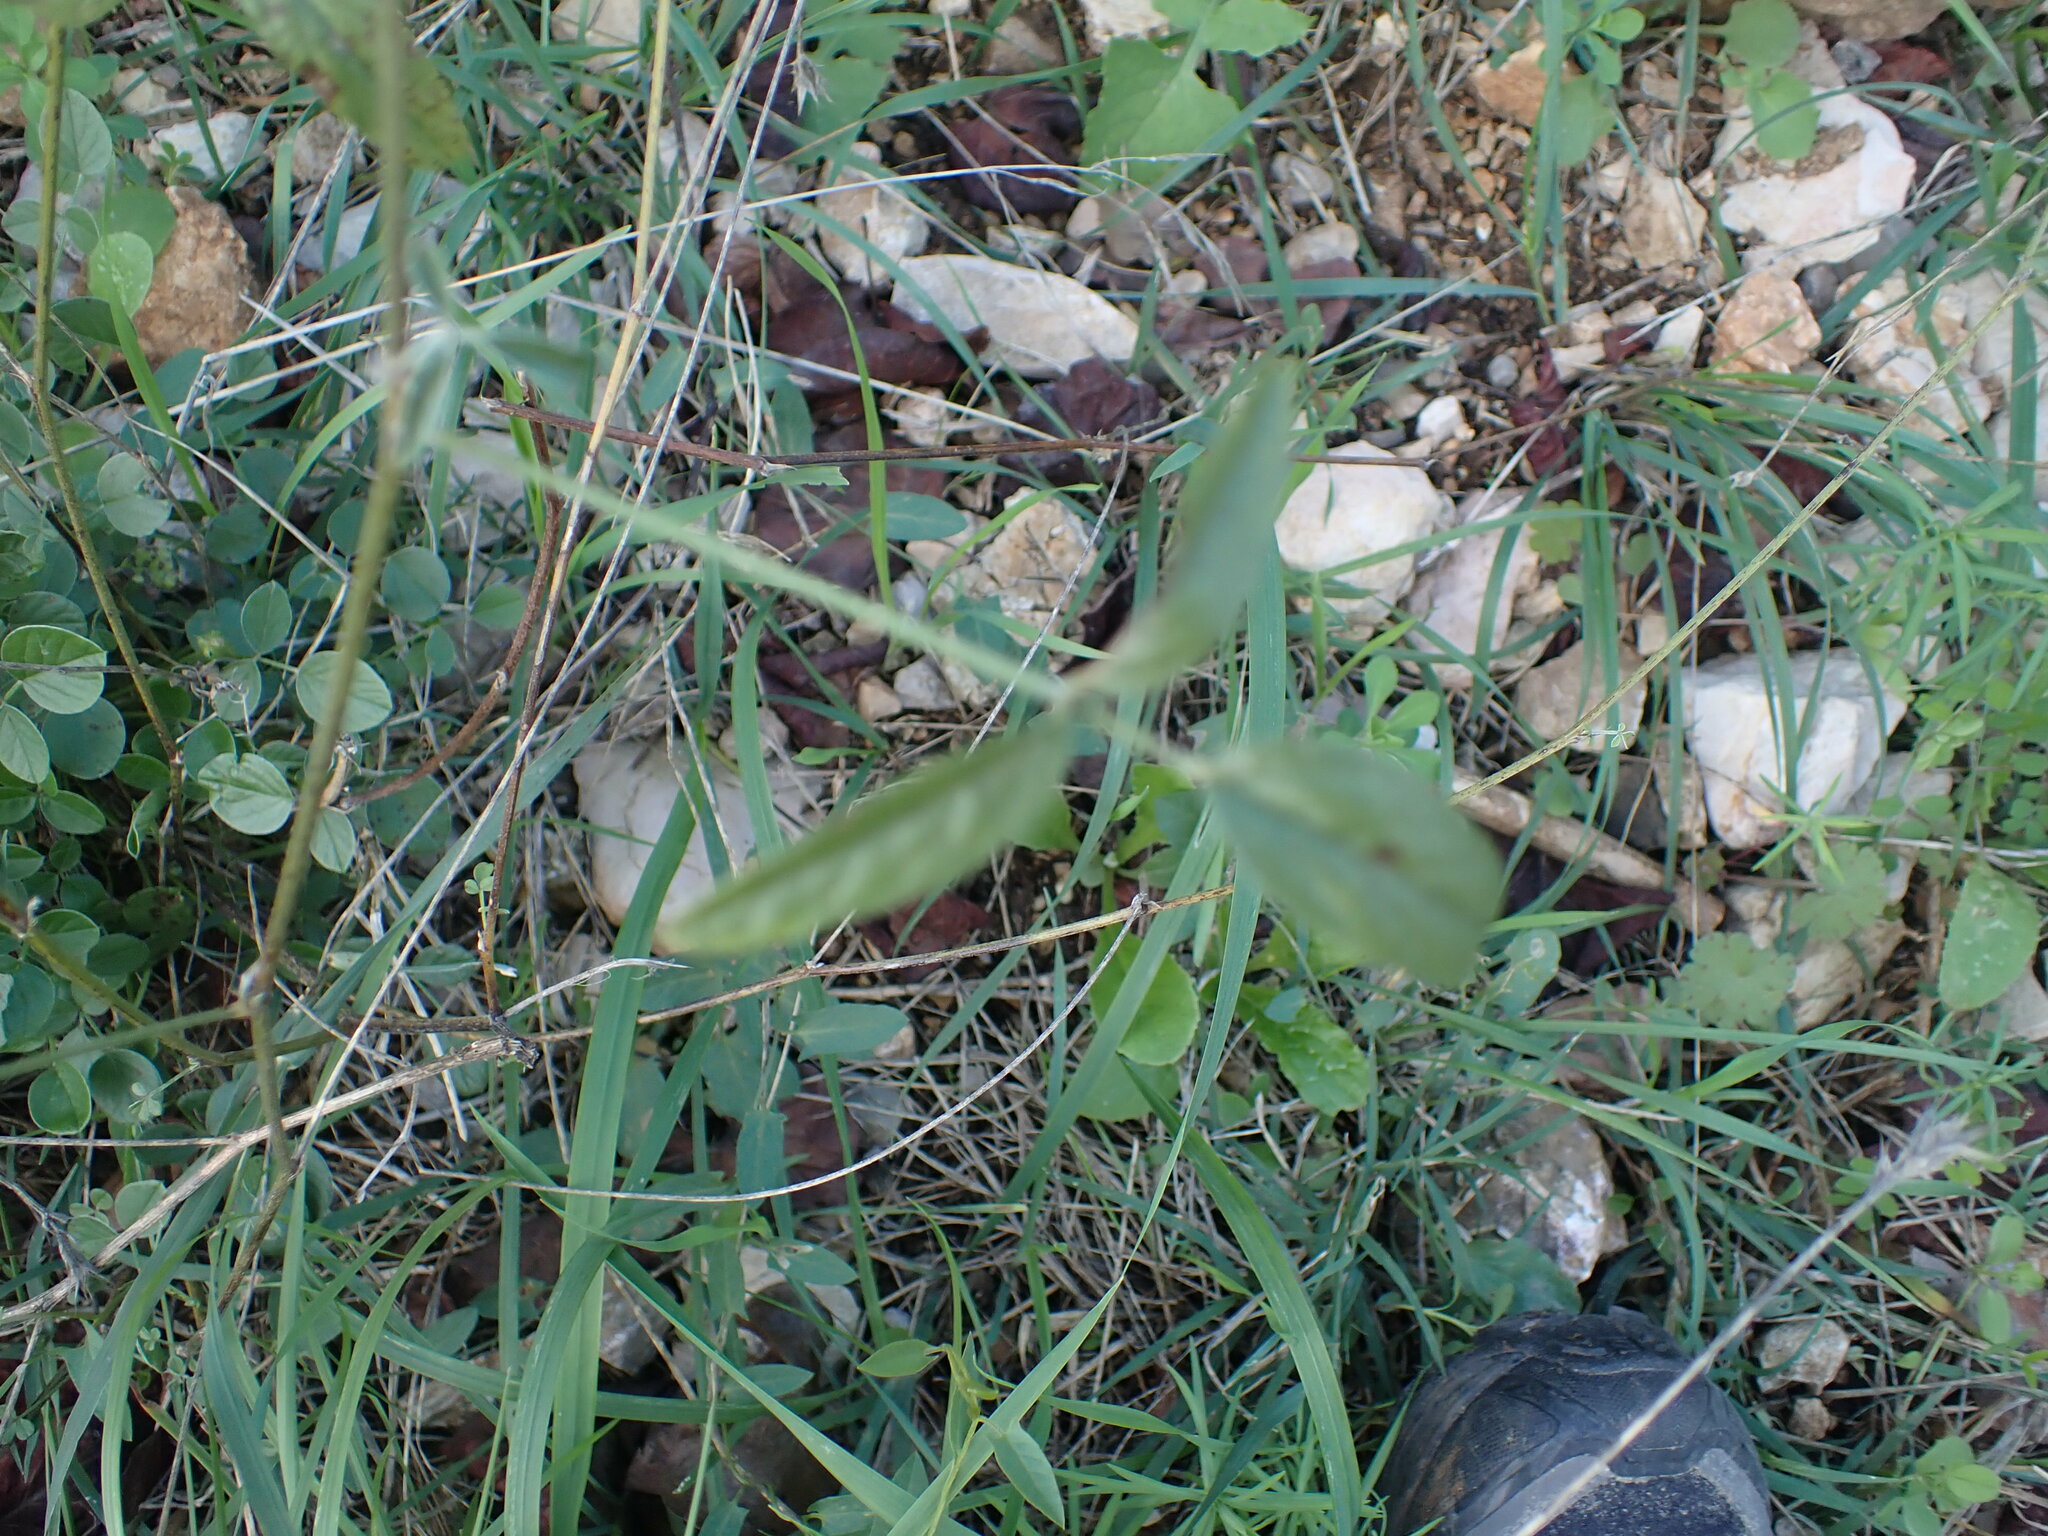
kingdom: Plantae
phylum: Tracheophyta
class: Magnoliopsida
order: Fabales
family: Fabaceae
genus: Bituminaria
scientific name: Bituminaria bituminosa
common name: Arabian pea
